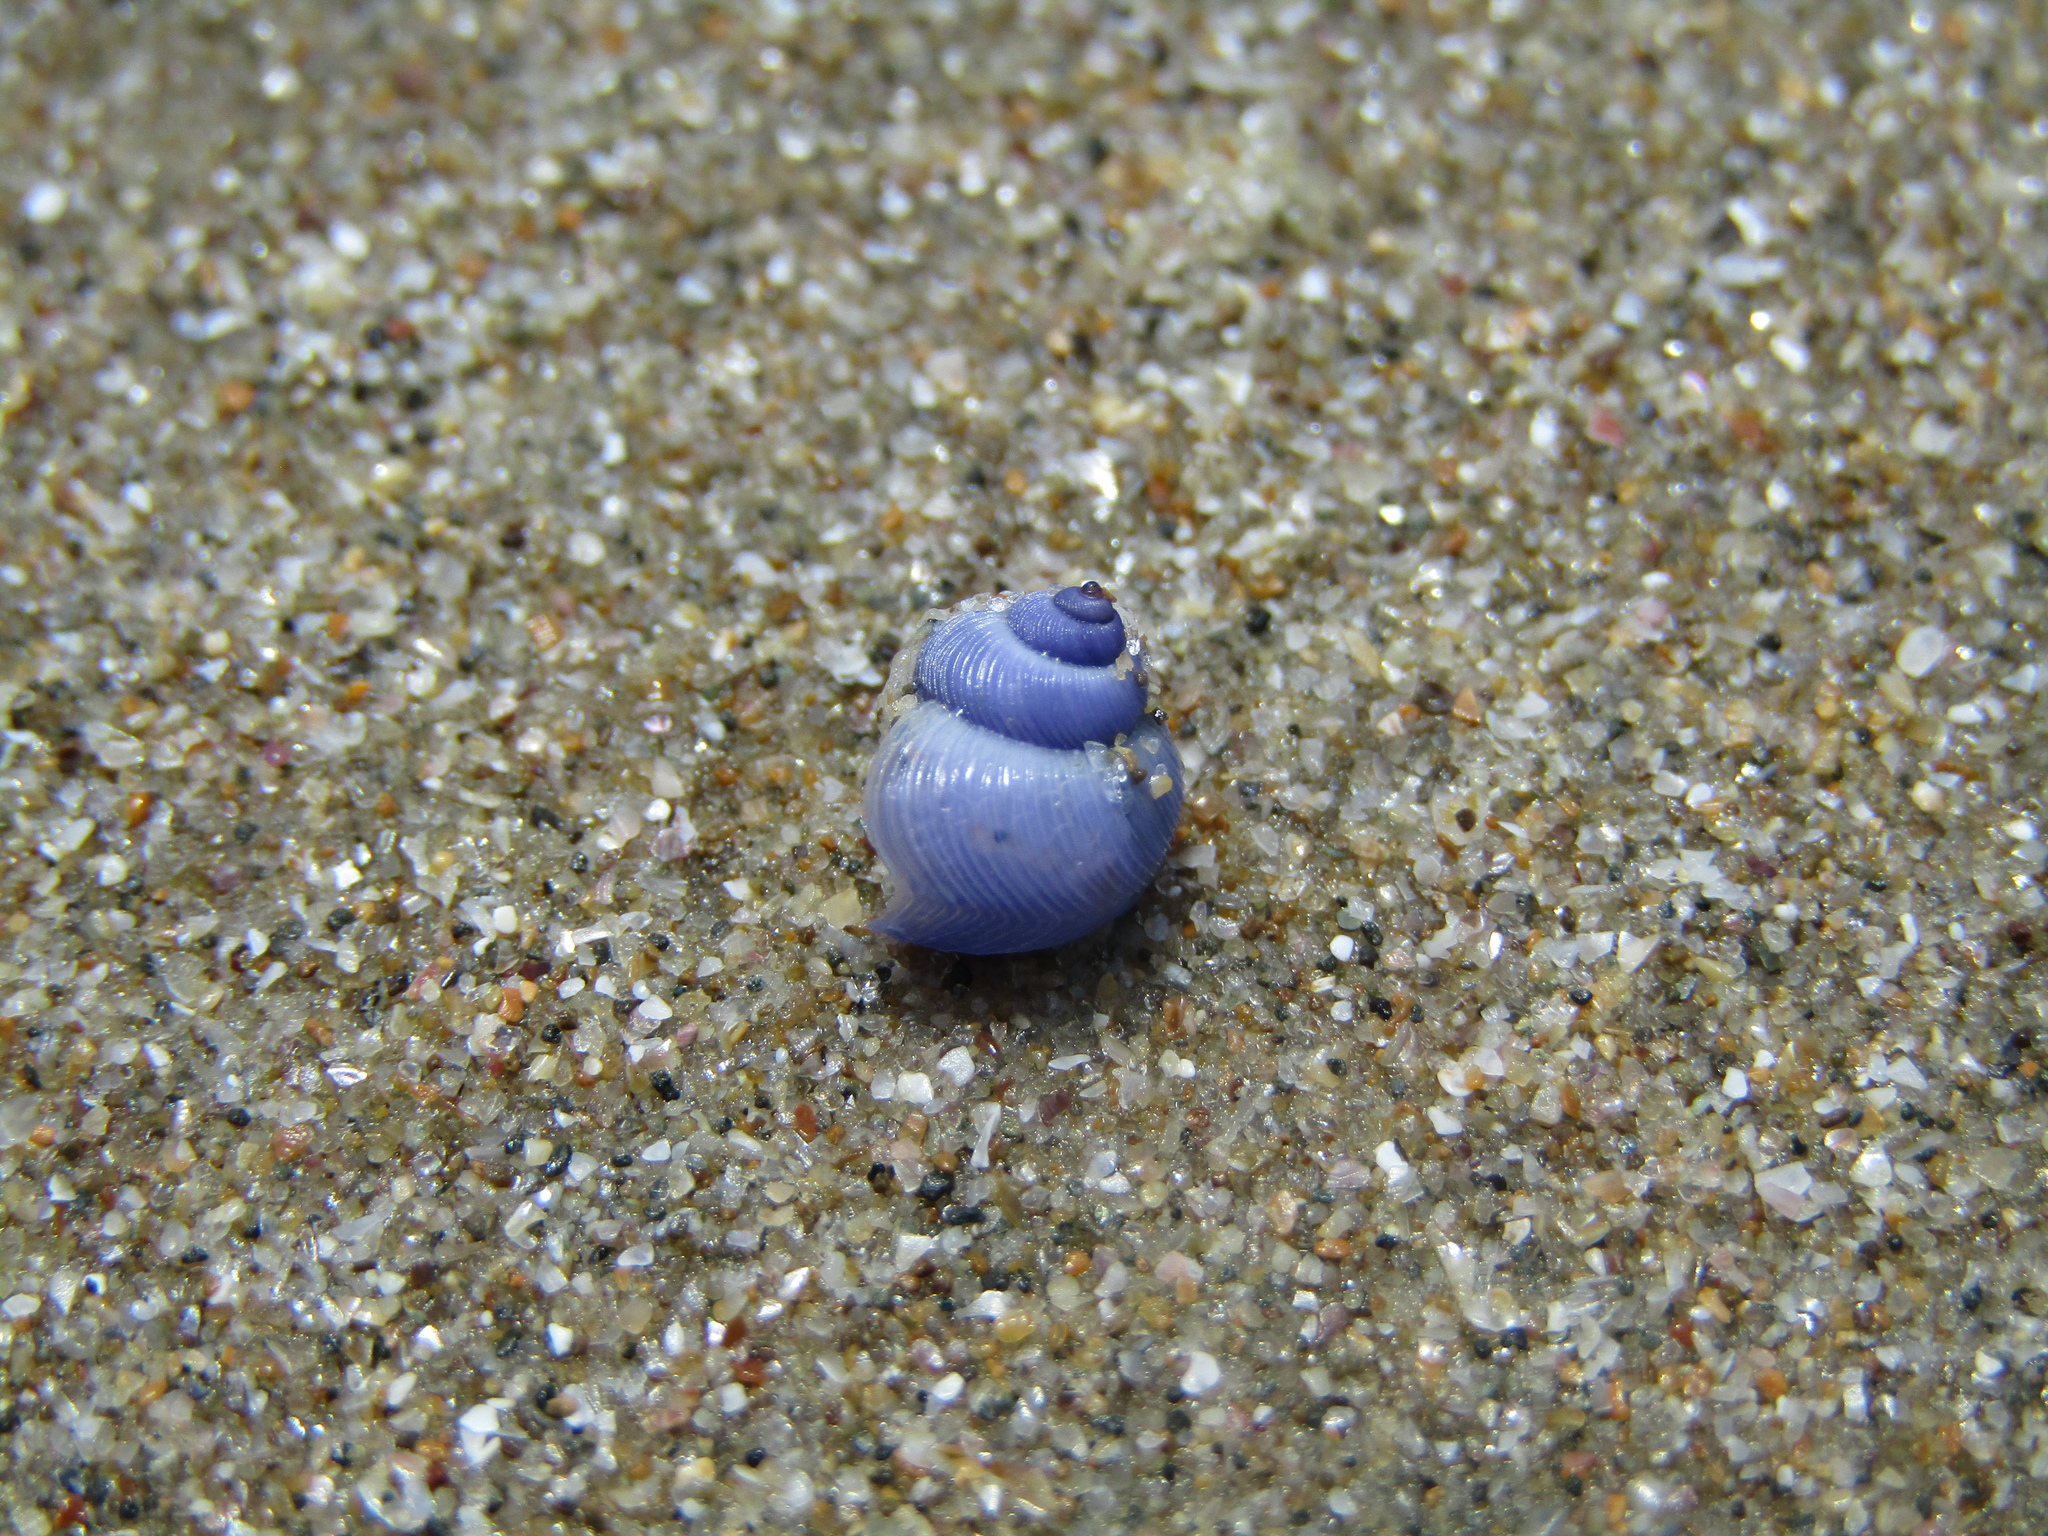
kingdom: Animalia
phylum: Mollusca
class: Gastropoda
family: Epitoniidae
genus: Janthina
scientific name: Janthina exigua
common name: Dwarf janthina
